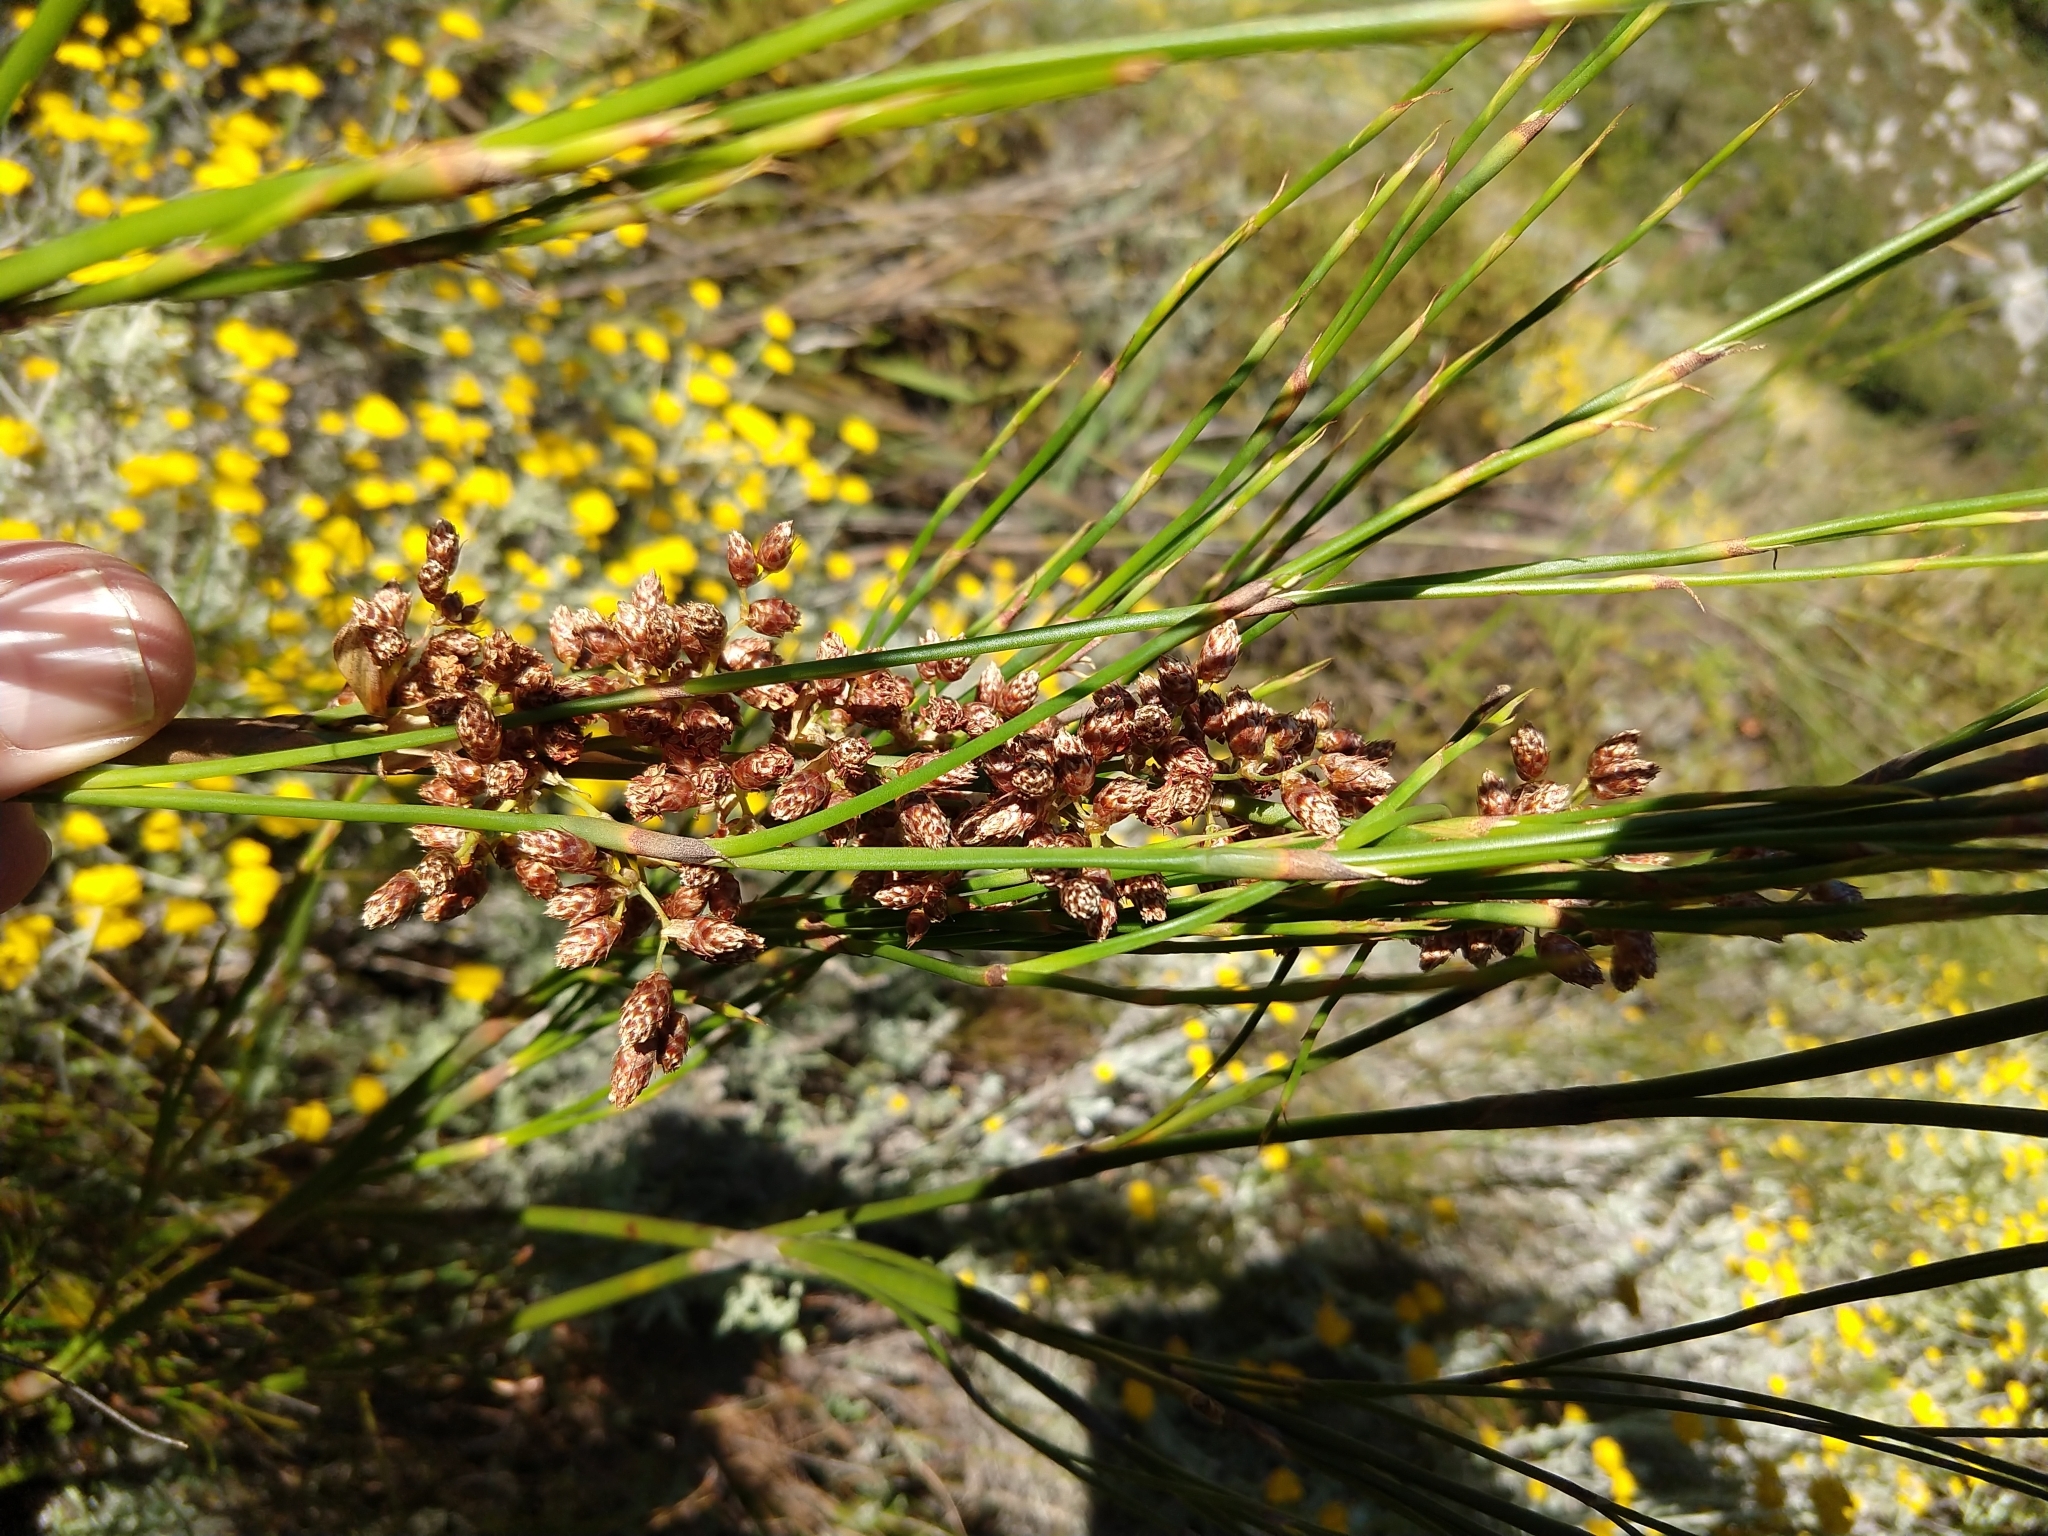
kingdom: Plantae
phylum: Tracheophyta
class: Liliopsida
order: Poales
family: Restionaceae
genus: Cannomois
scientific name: Cannomois virgata
